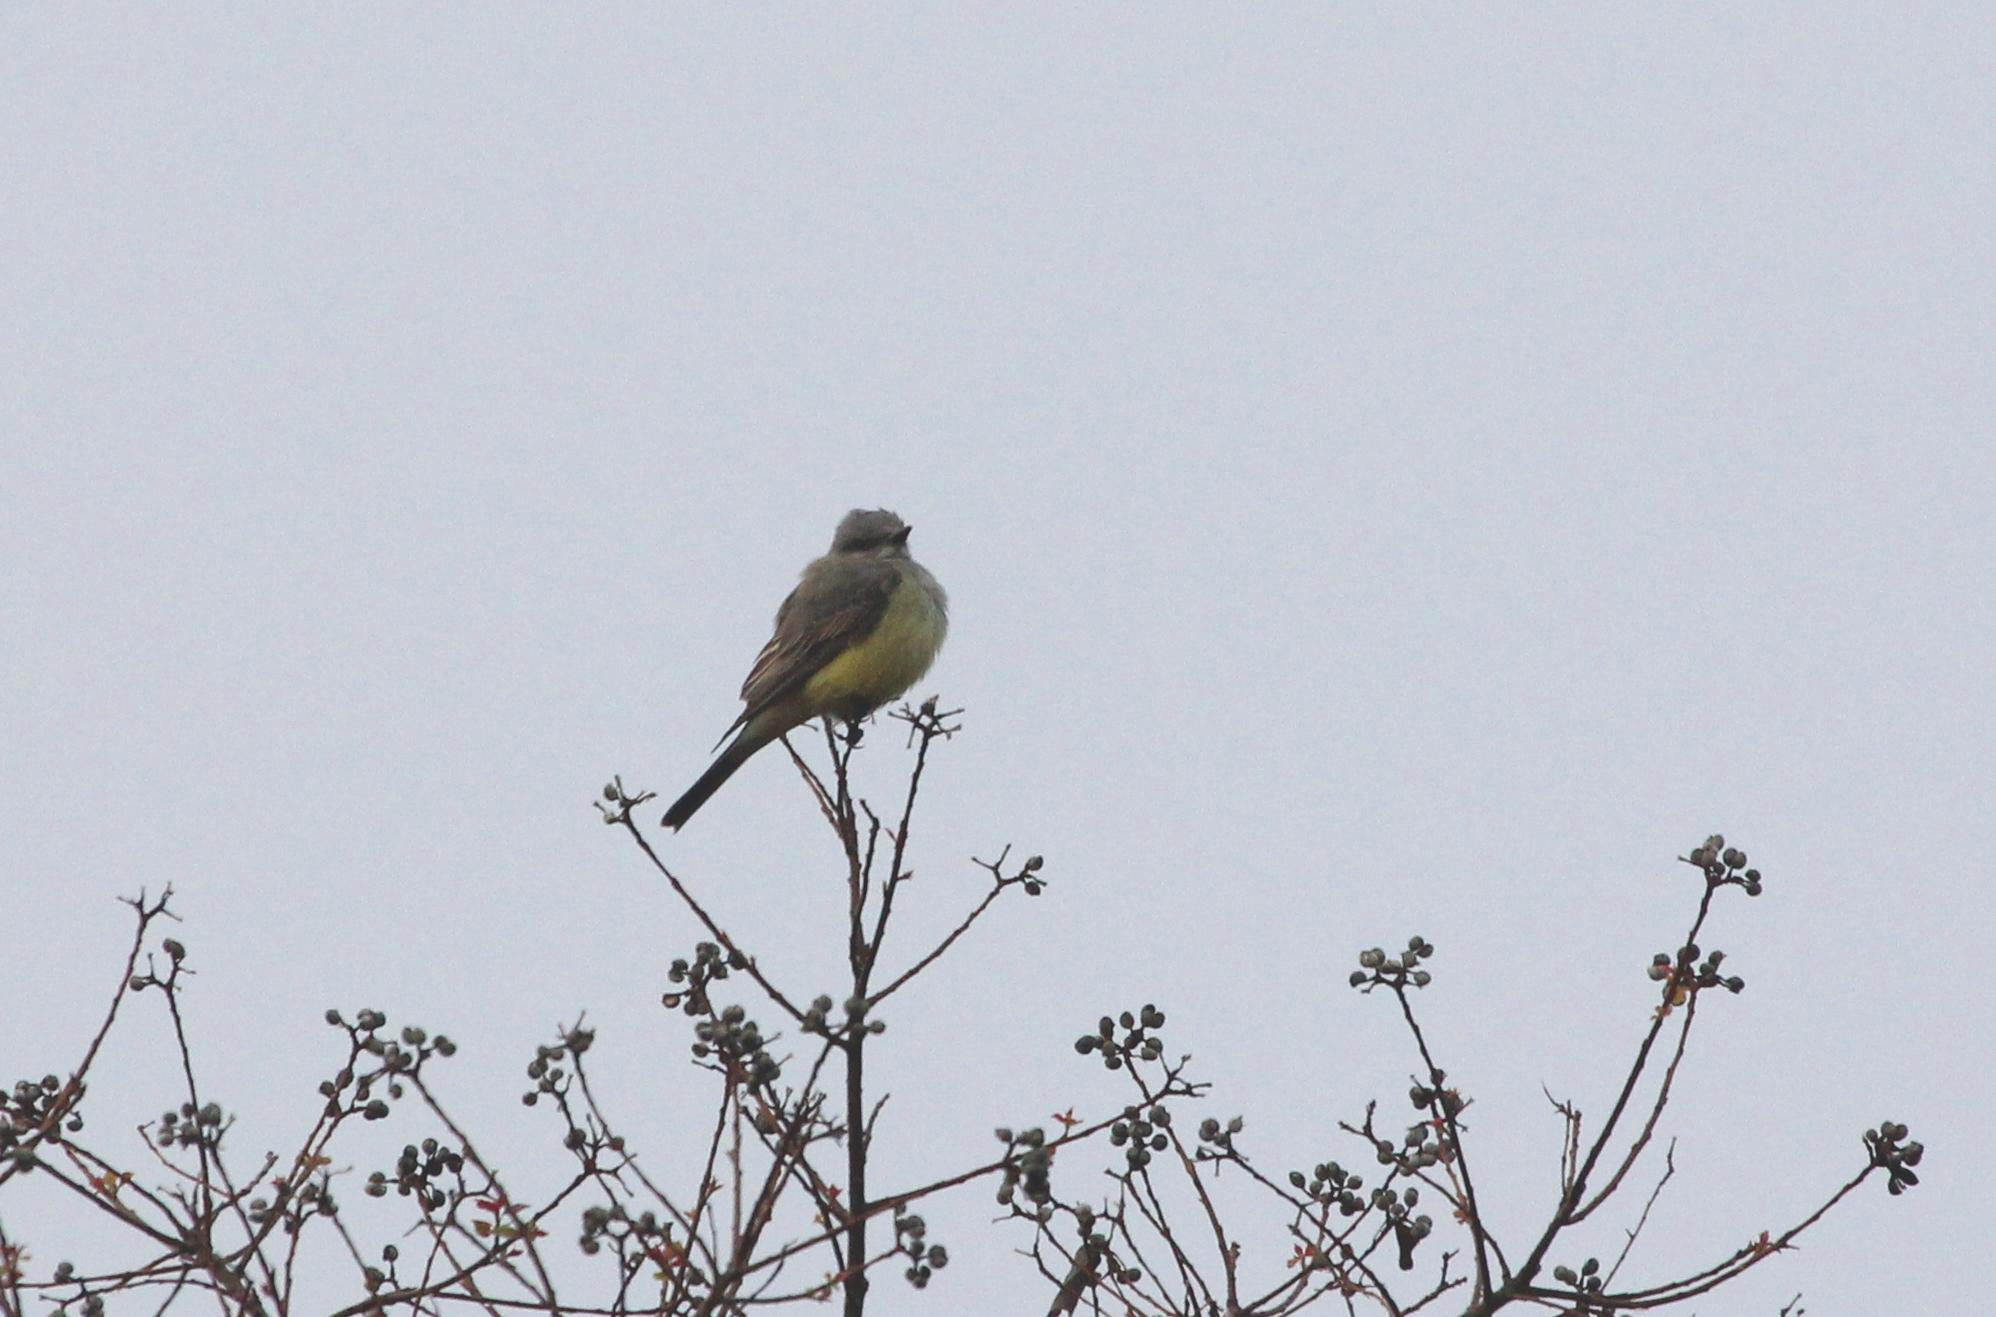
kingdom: Animalia
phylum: Chordata
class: Aves
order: Passeriformes
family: Tyrannidae
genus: Tyrannus
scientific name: Tyrannus verticalis
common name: Western kingbird
